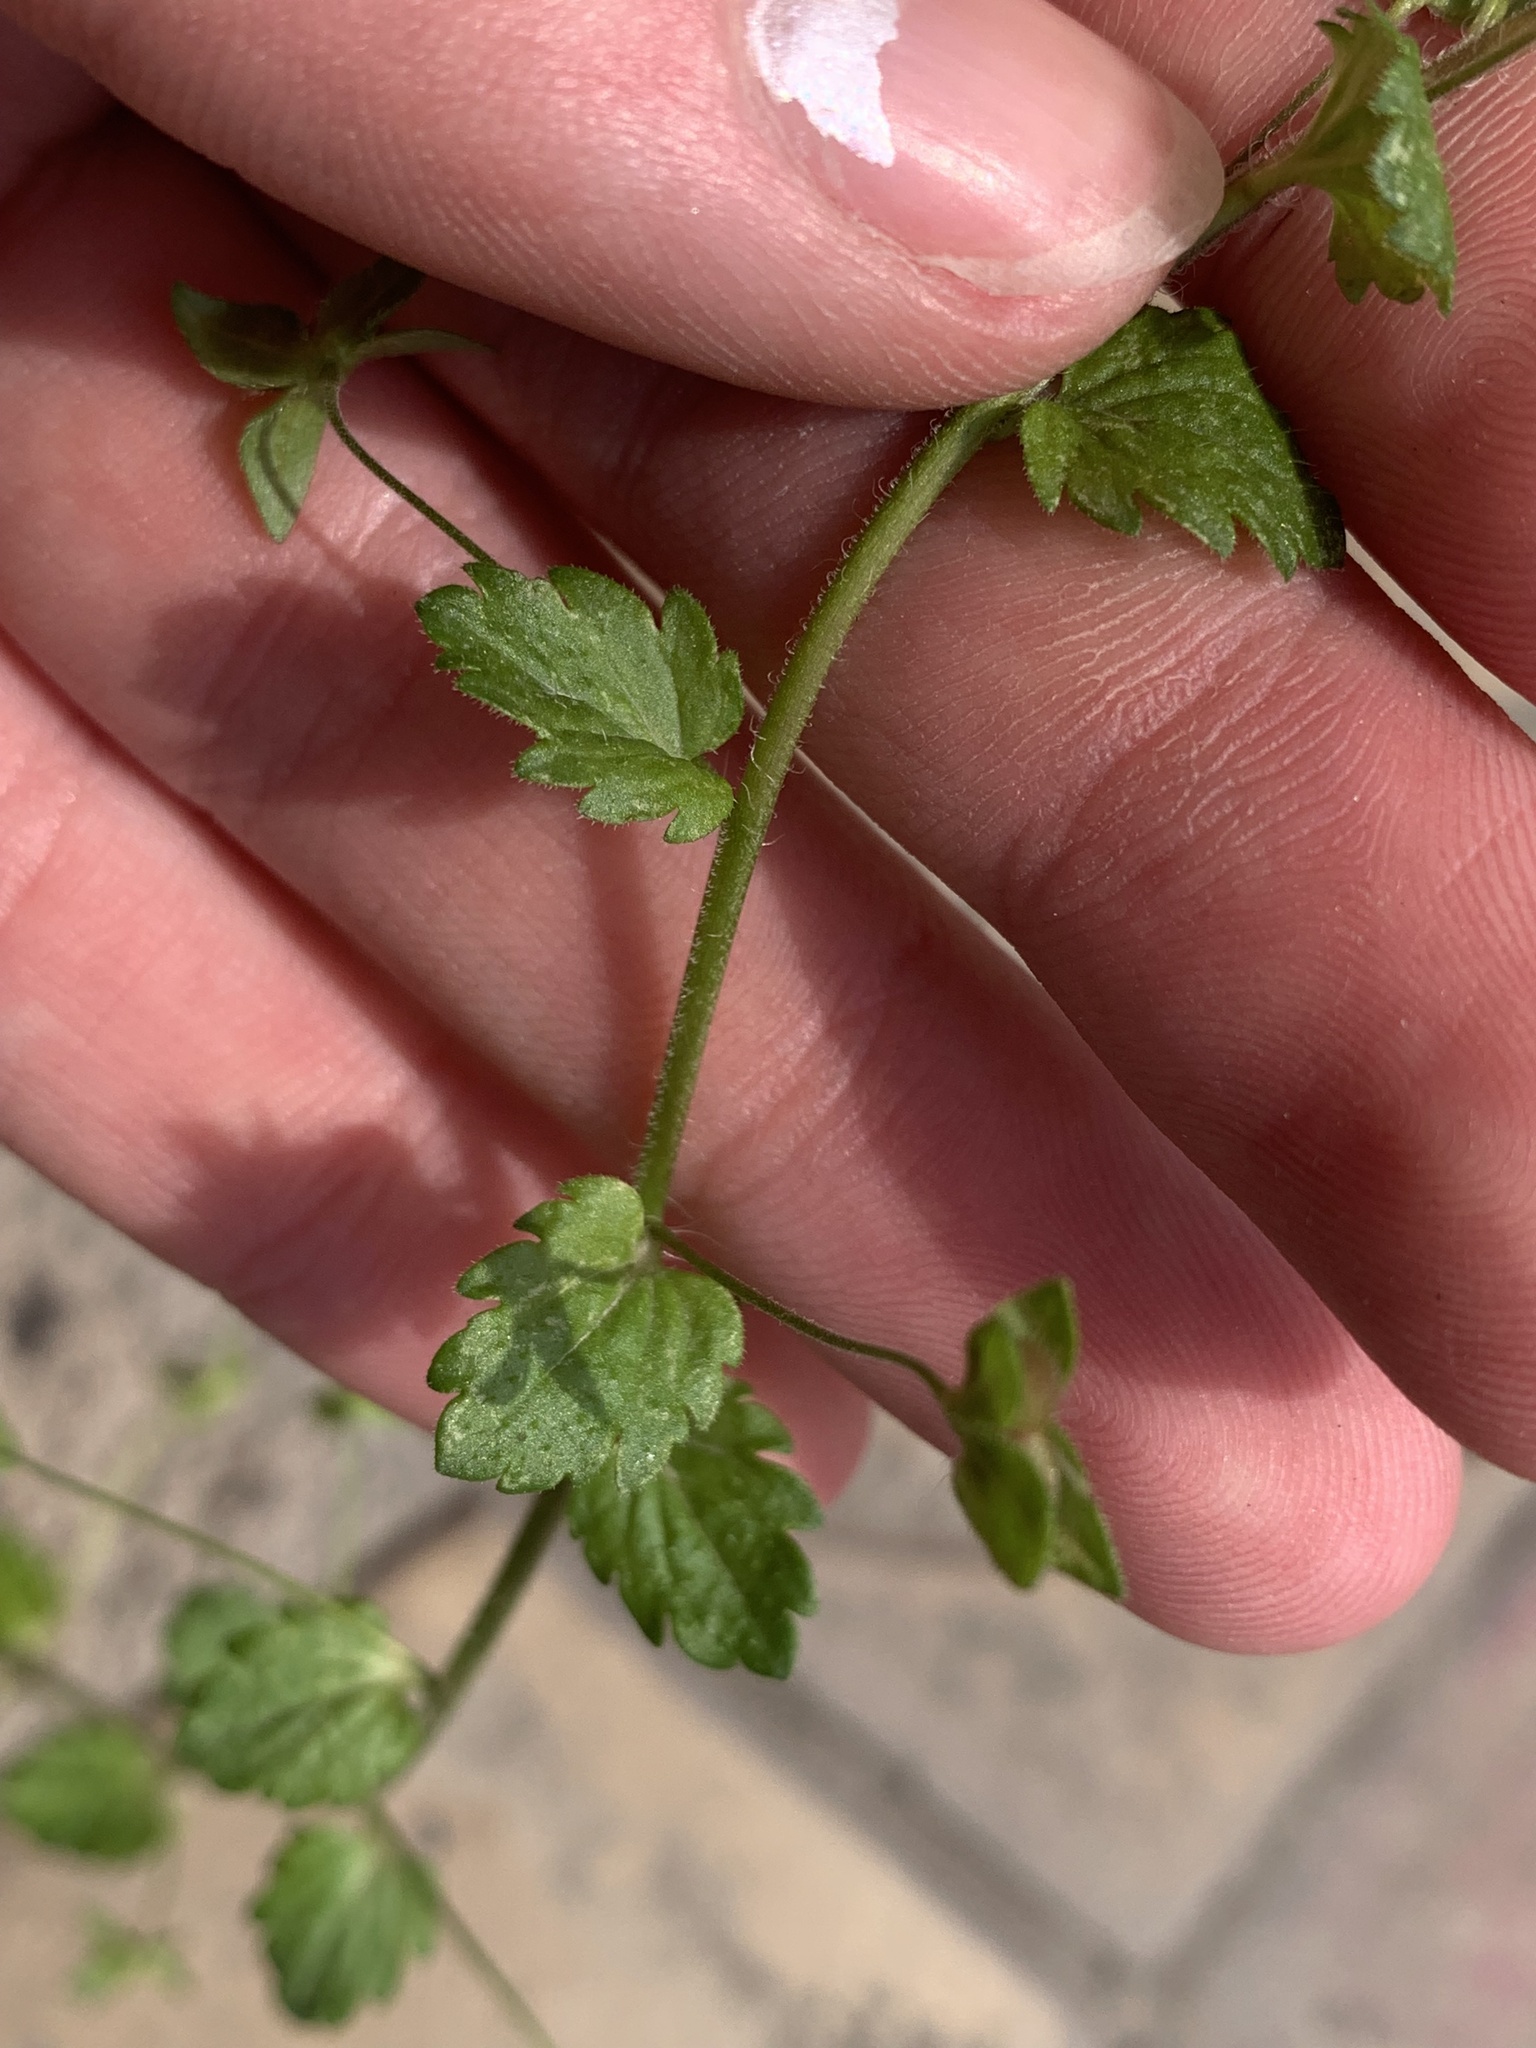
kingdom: Plantae
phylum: Tracheophyta
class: Magnoliopsida
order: Lamiales
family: Plantaginaceae
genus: Veronica
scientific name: Veronica persica
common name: Common field-speedwell
